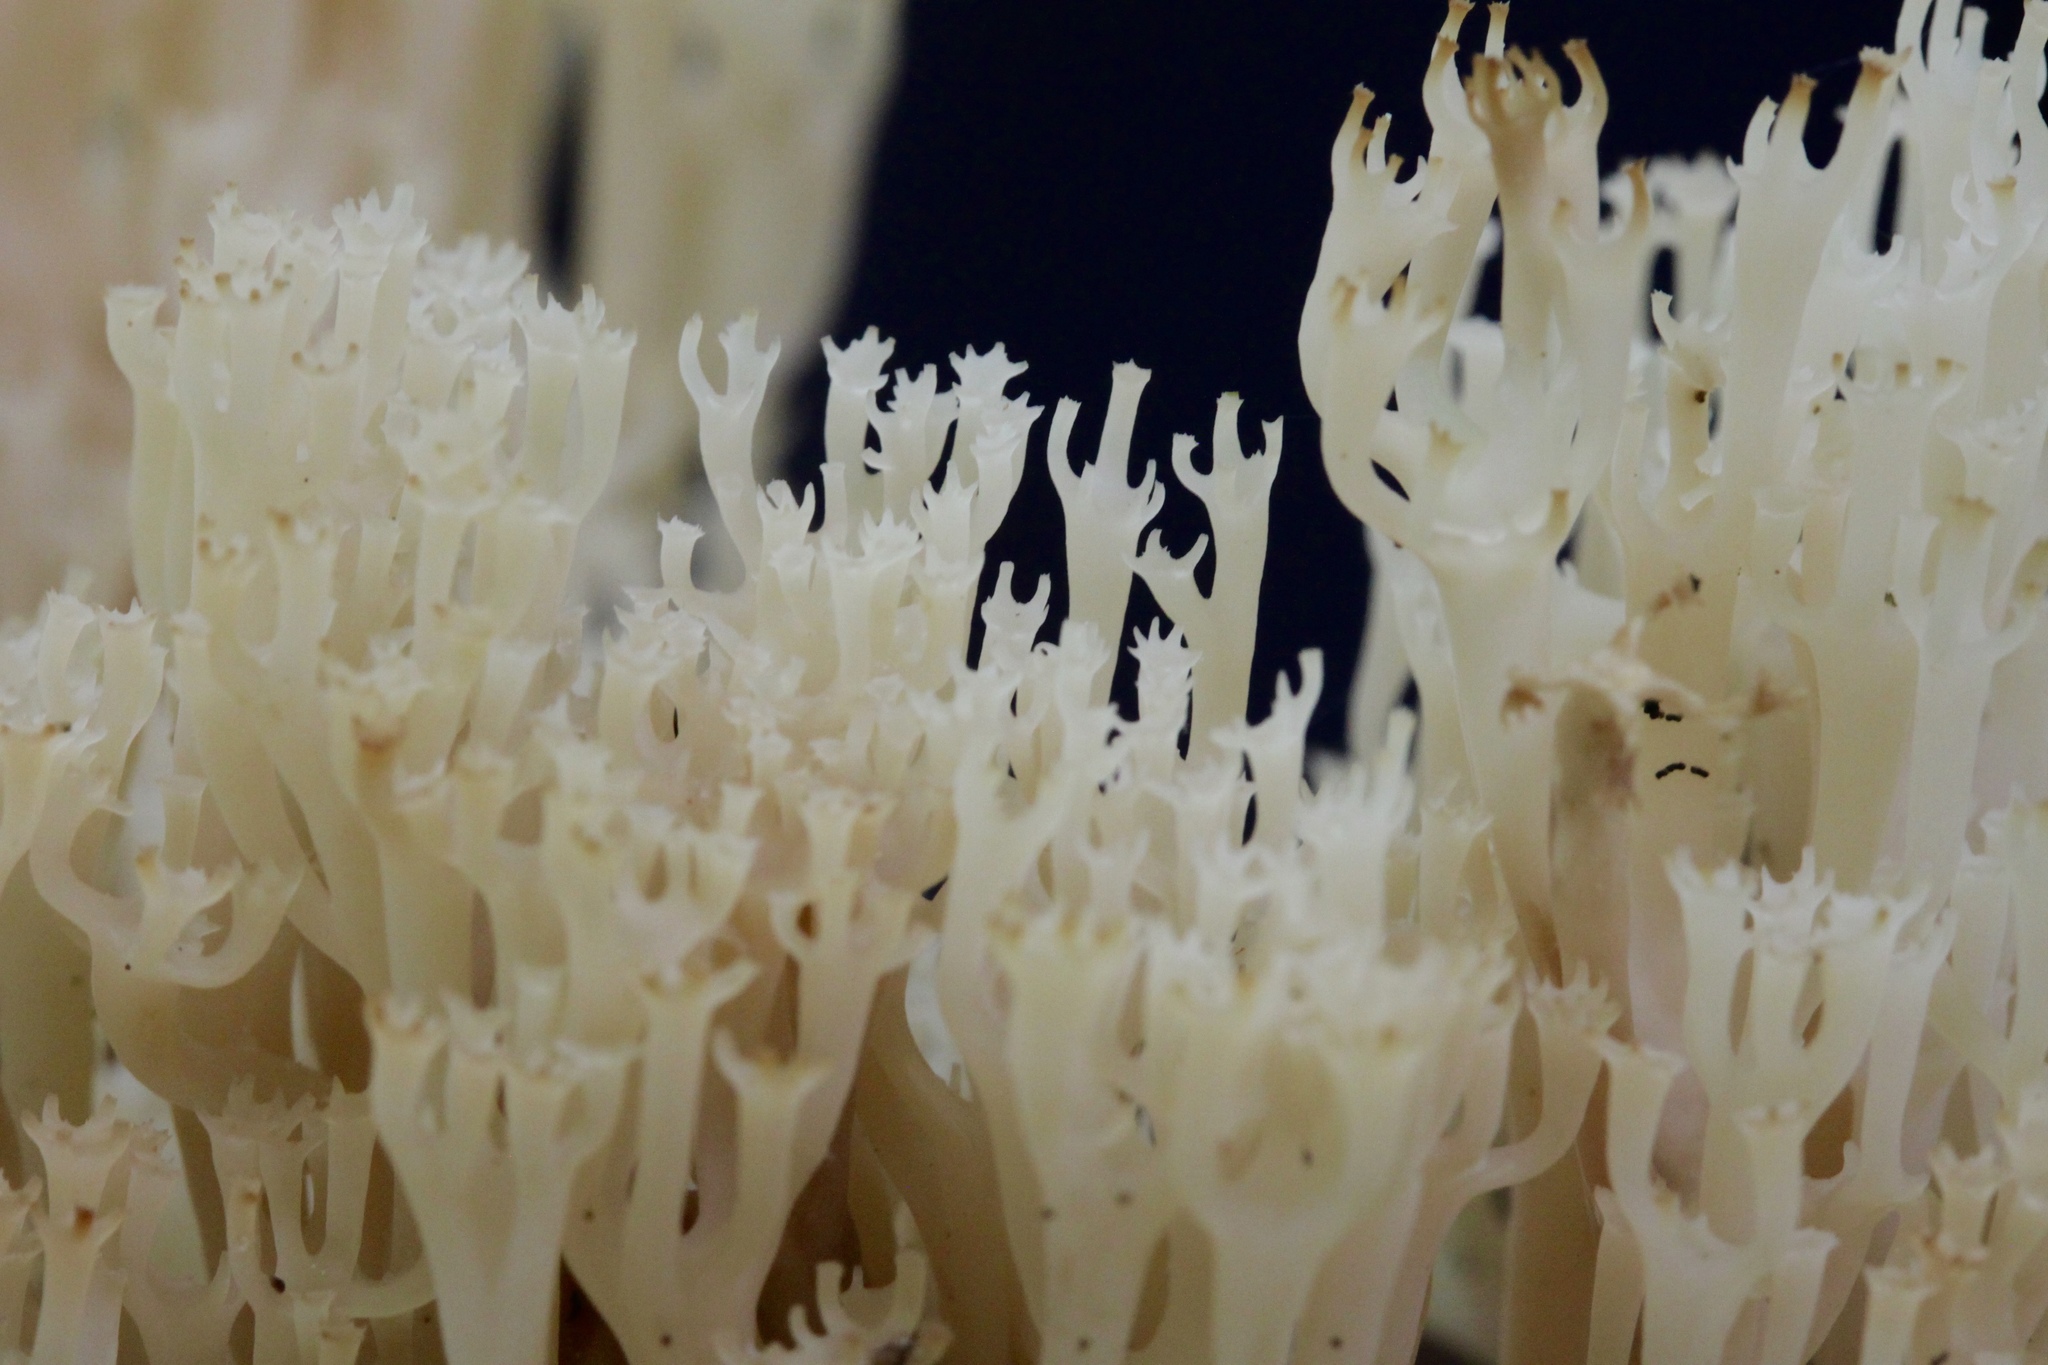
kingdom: Fungi
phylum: Basidiomycota
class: Agaricomycetes
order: Russulales
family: Auriscalpiaceae
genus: Artomyces
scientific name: Artomyces pyxidatus
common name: Crown-tipped coral fungus
